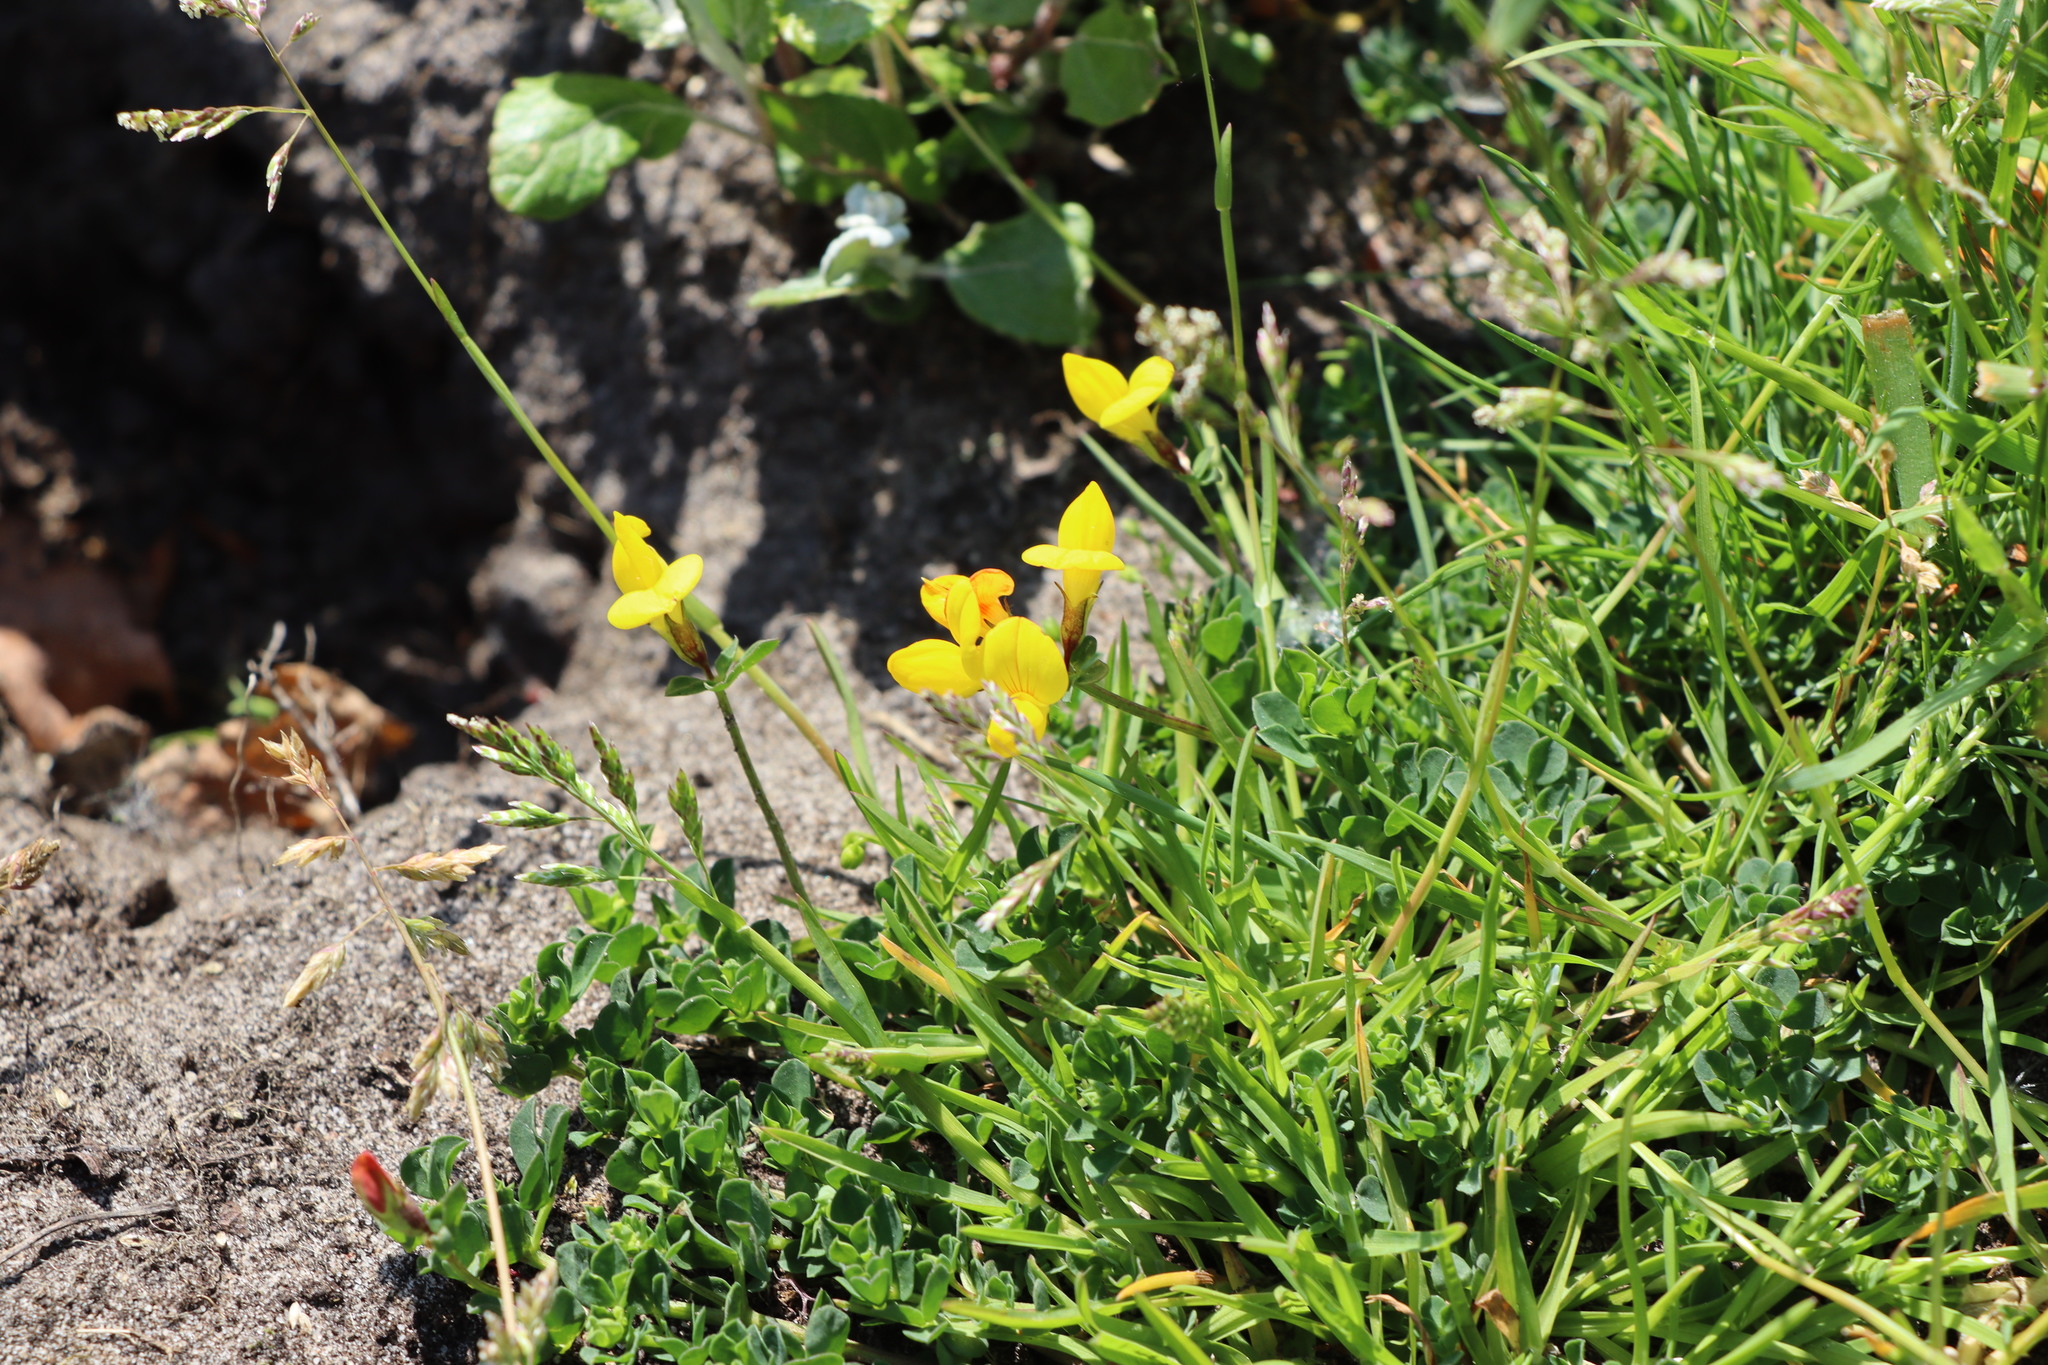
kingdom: Plantae
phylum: Tracheophyta
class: Magnoliopsida
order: Fabales
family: Fabaceae
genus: Lotus
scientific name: Lotus corniculatus
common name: Common bird's-foot-trefoil
